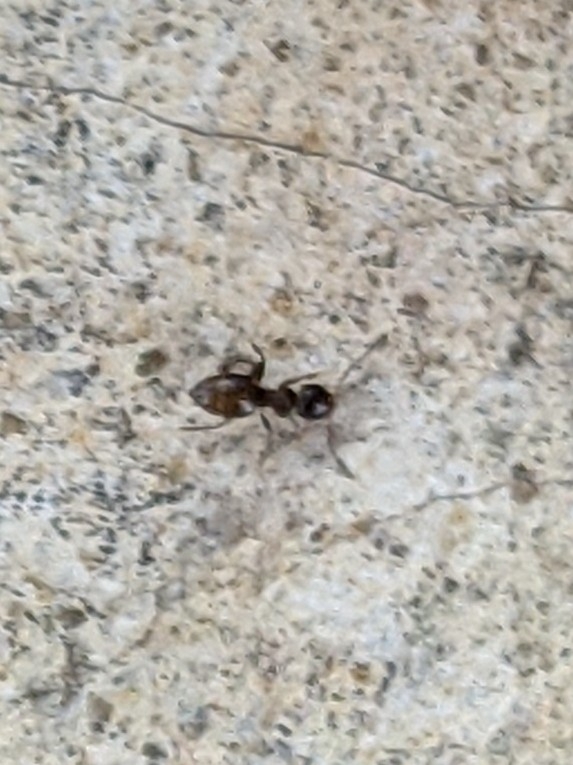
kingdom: Animalia
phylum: Arthropoda
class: Insecta
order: Hymenoptera
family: Formicidae
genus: Brachymyrmex
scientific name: Brachymyrmex patagonicus
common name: Dark rover ant
